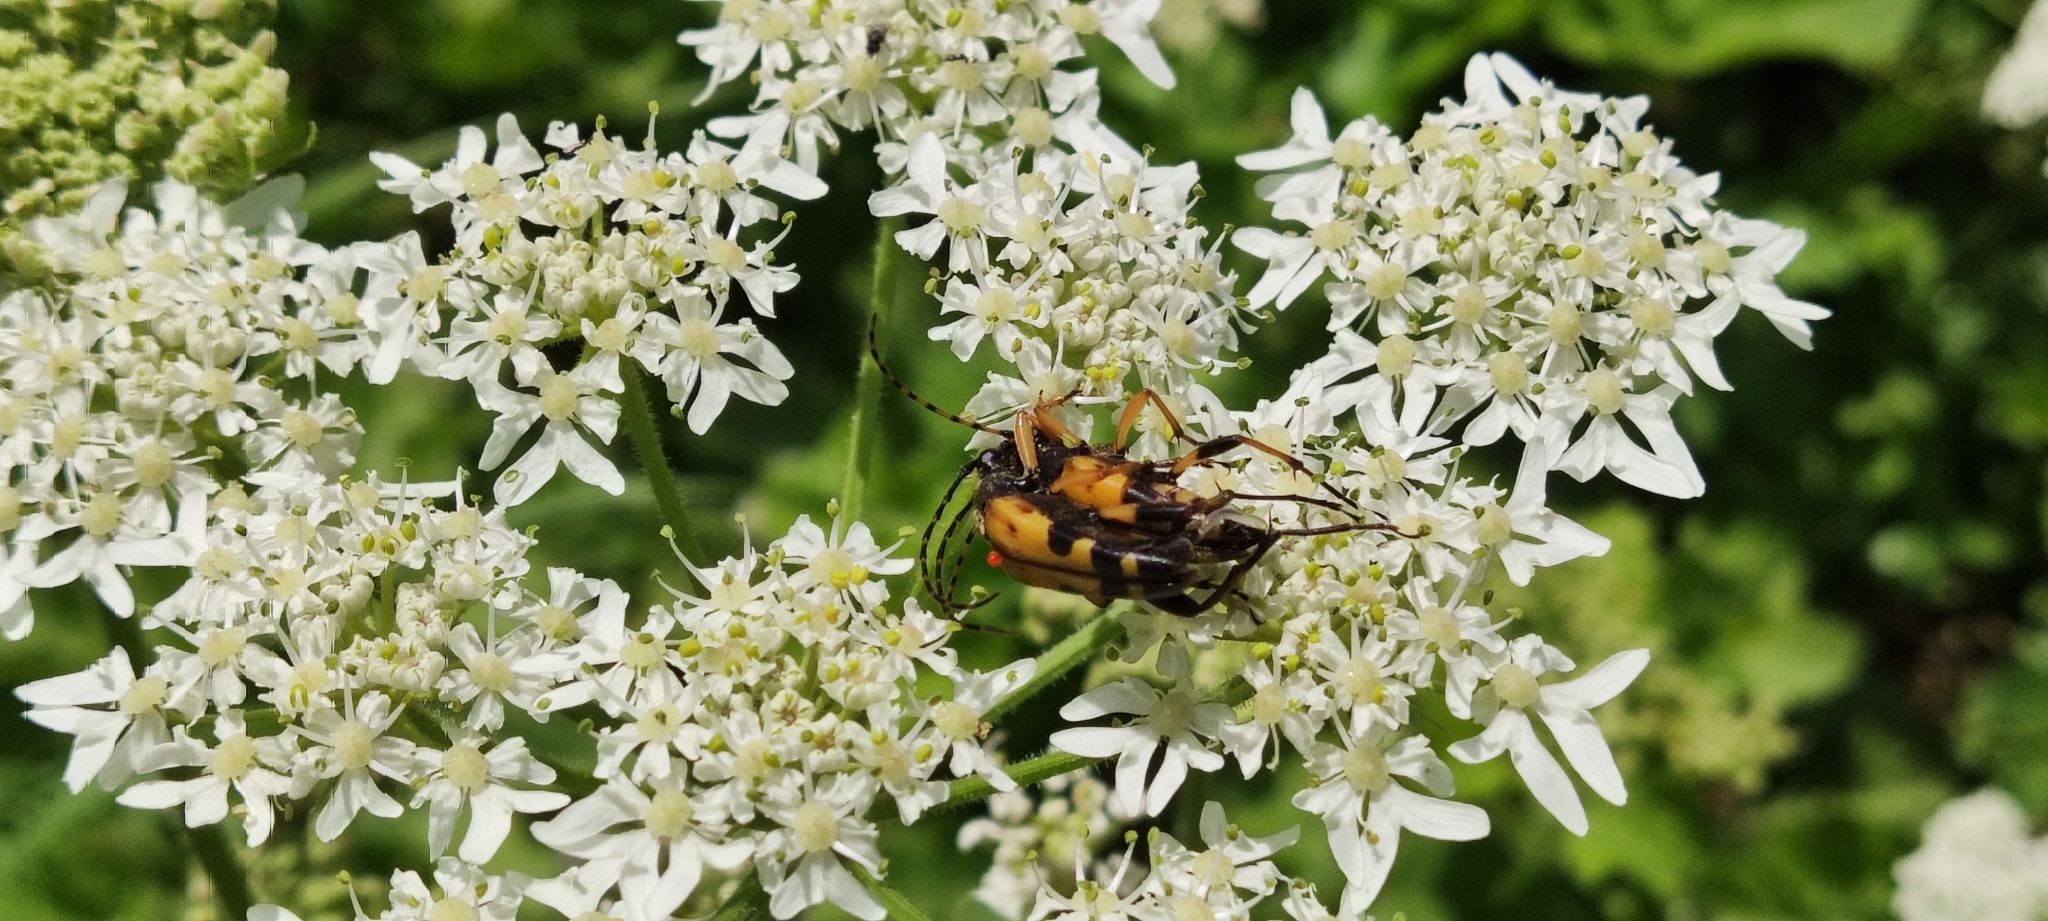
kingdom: Animalia
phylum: Arthropoda
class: Insecta
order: Coleoptera
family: Cerambycidae
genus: Rutpela
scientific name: Rutpela maculata
